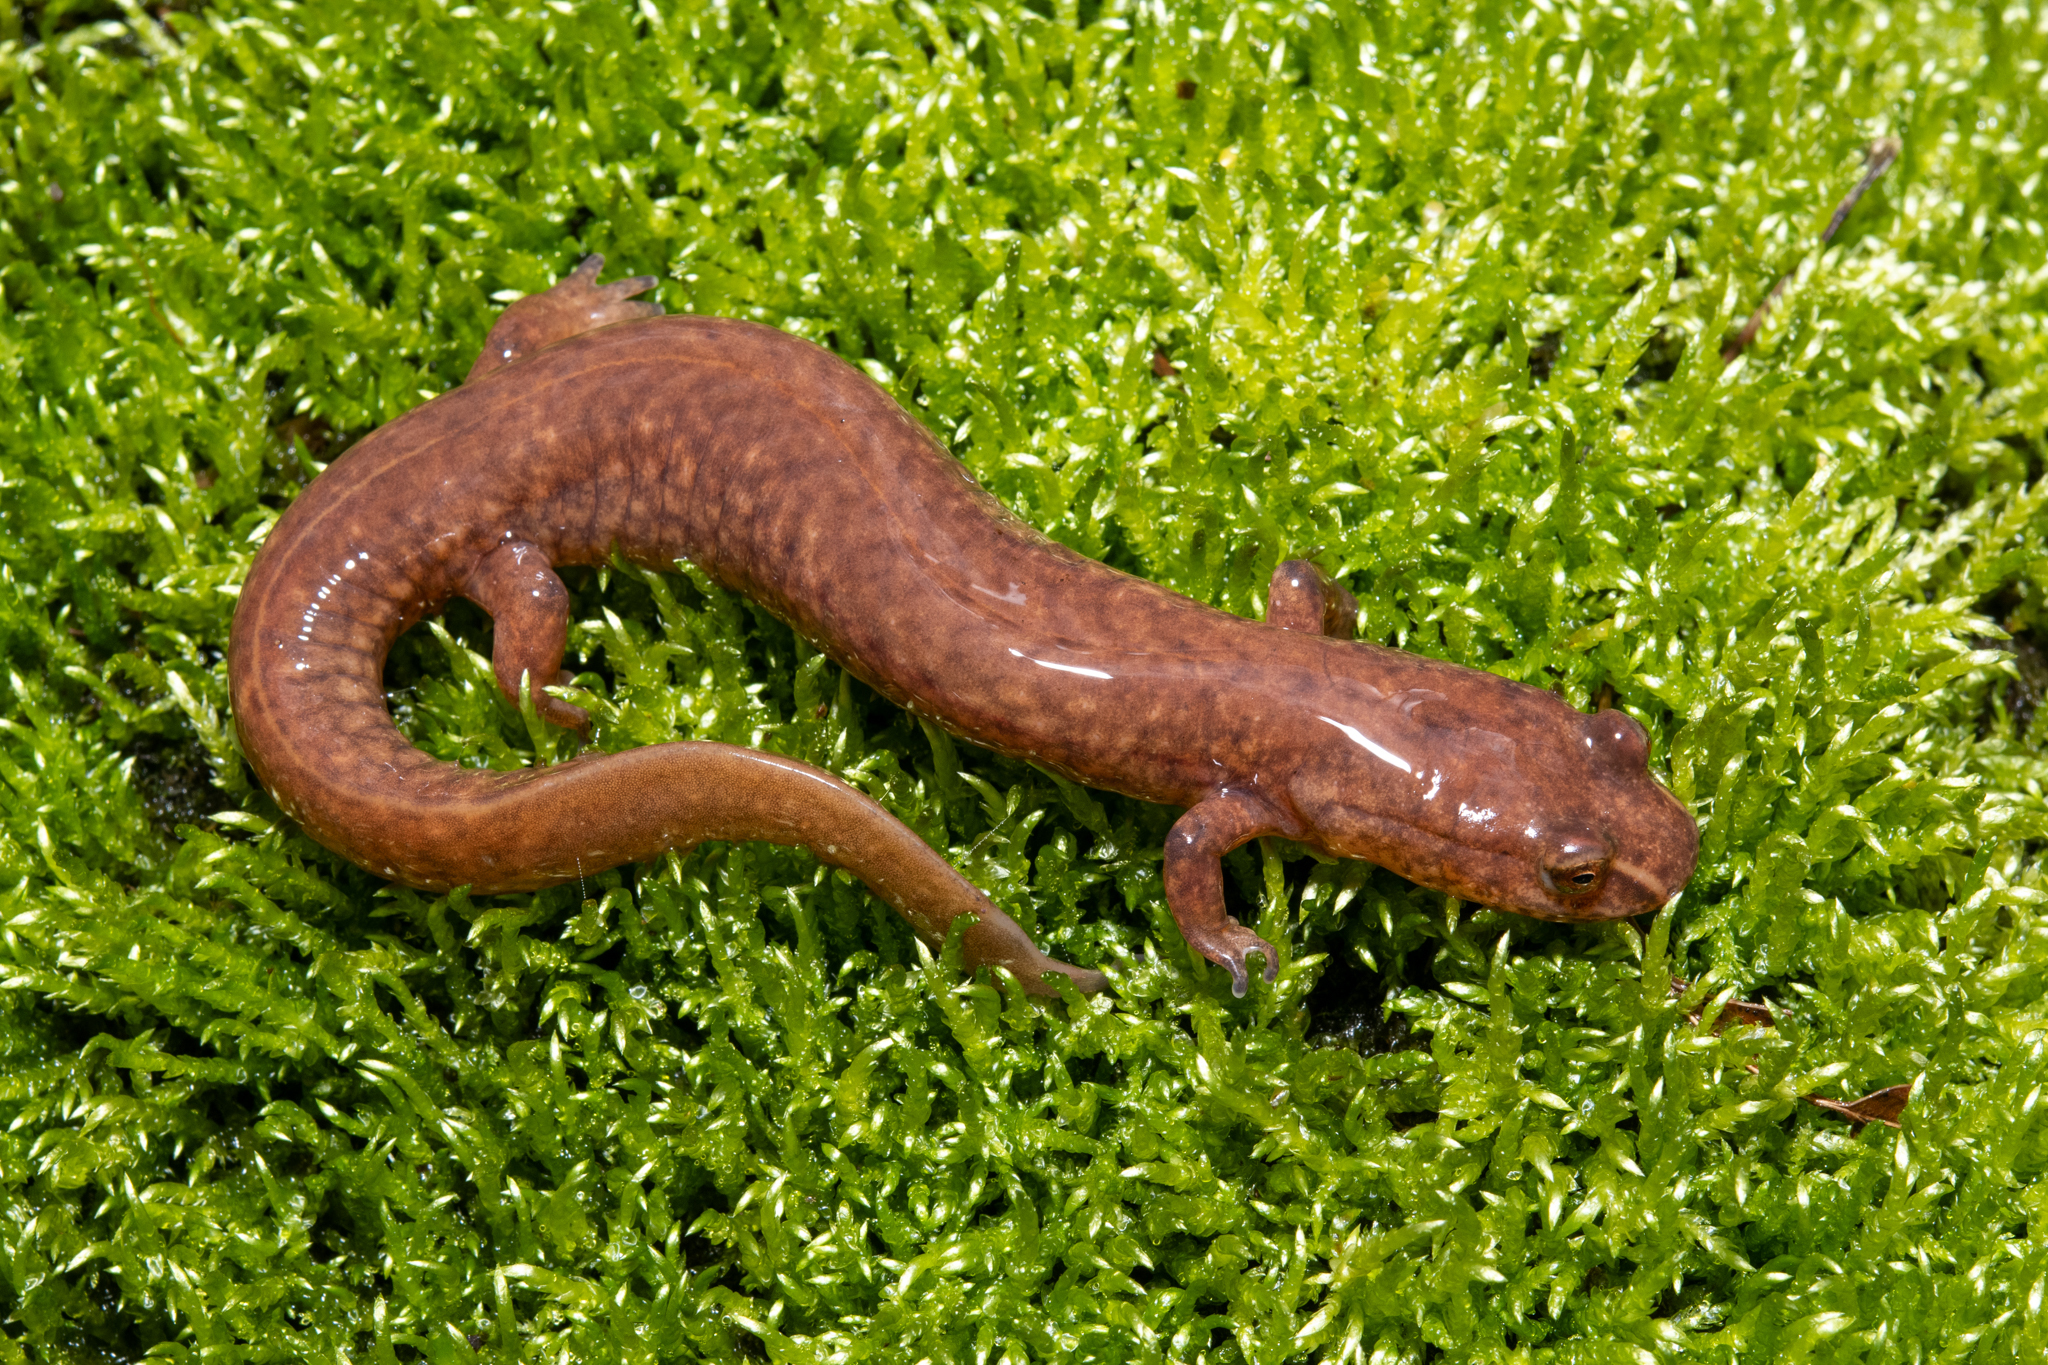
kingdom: Animalia
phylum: Chordata
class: Amphibia
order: Caudata
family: Plethodontidae
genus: Gyrinophilus
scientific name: Gyrinophilus porphyriticus
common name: Spring salamander
